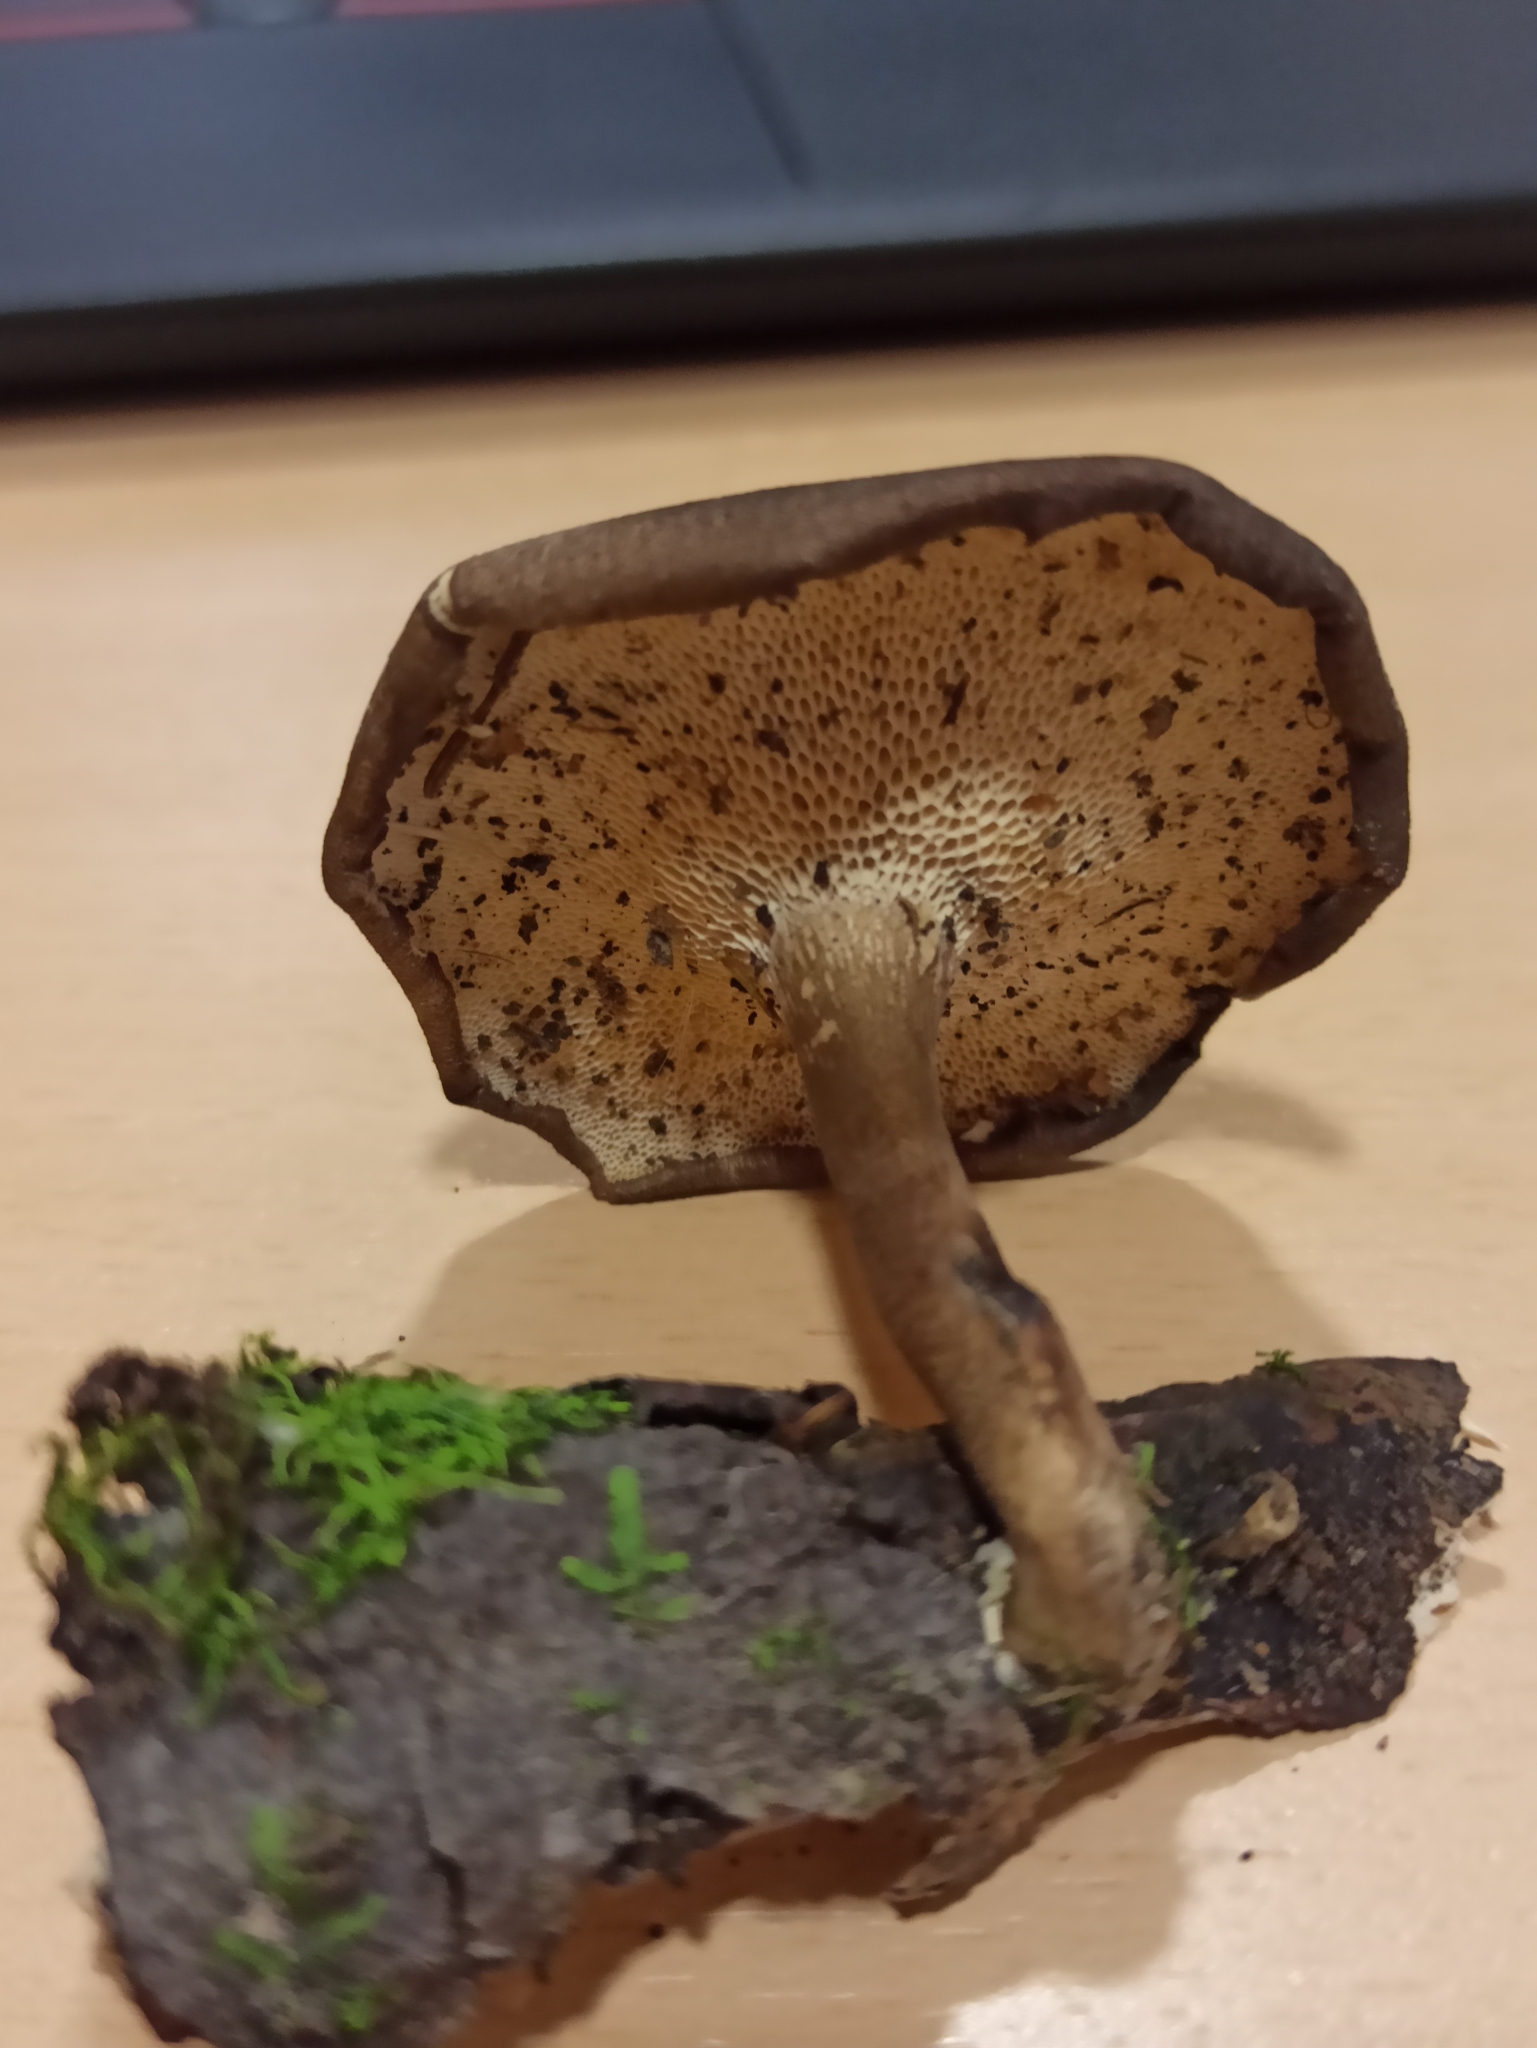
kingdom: Fungi
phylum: Basidiomycota
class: Agaricomycetes
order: Polyporales
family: Polyporaceae
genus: Lentinus
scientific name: Lentinus brumalis
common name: Winter polypore
